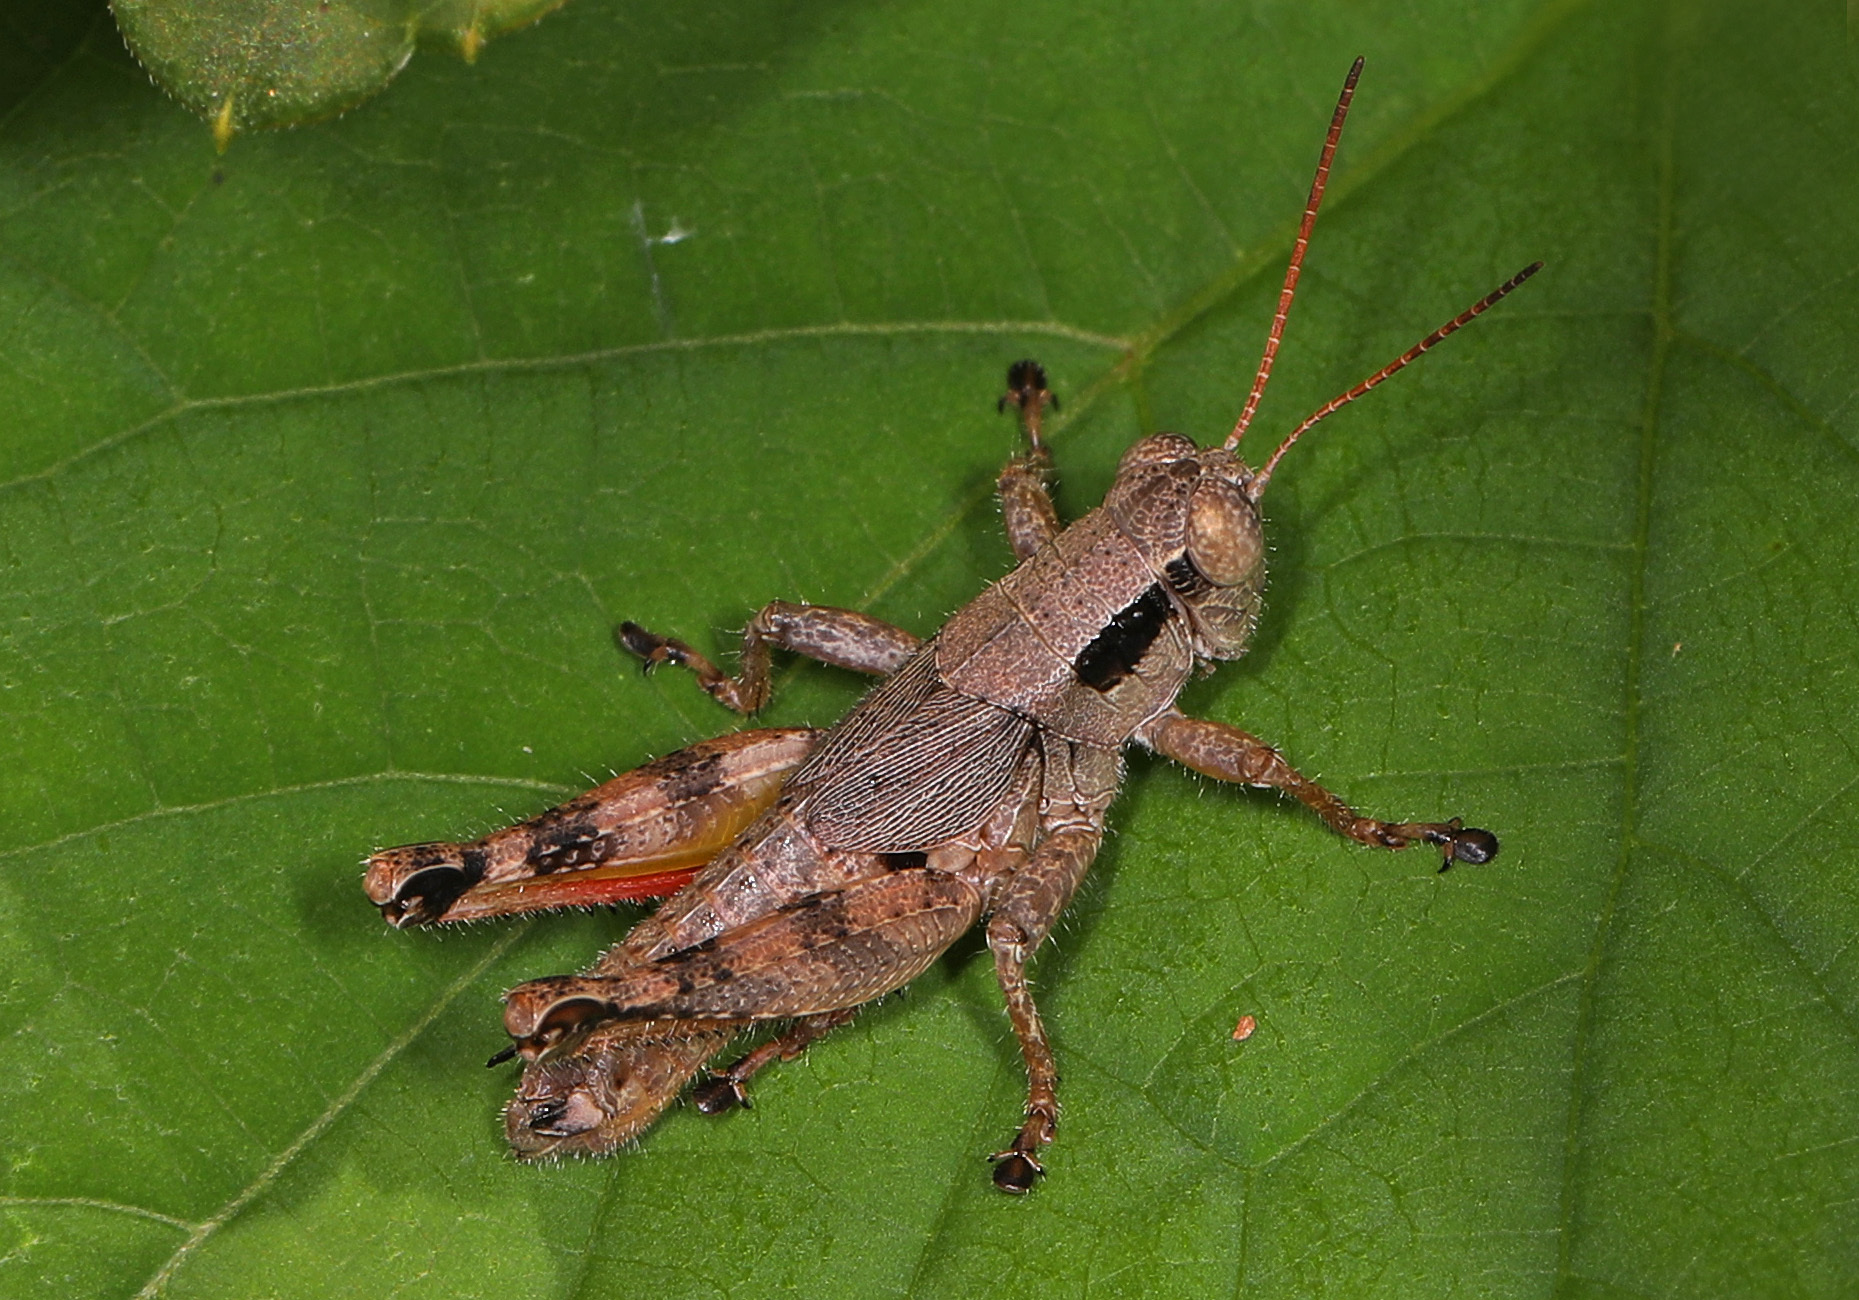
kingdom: Animalia
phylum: Arthropoda
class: Insecta
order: Orthoptera
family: Acrididae
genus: Melanoplus
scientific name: Melanoplus scudderi
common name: Scudder's short-winged locust
